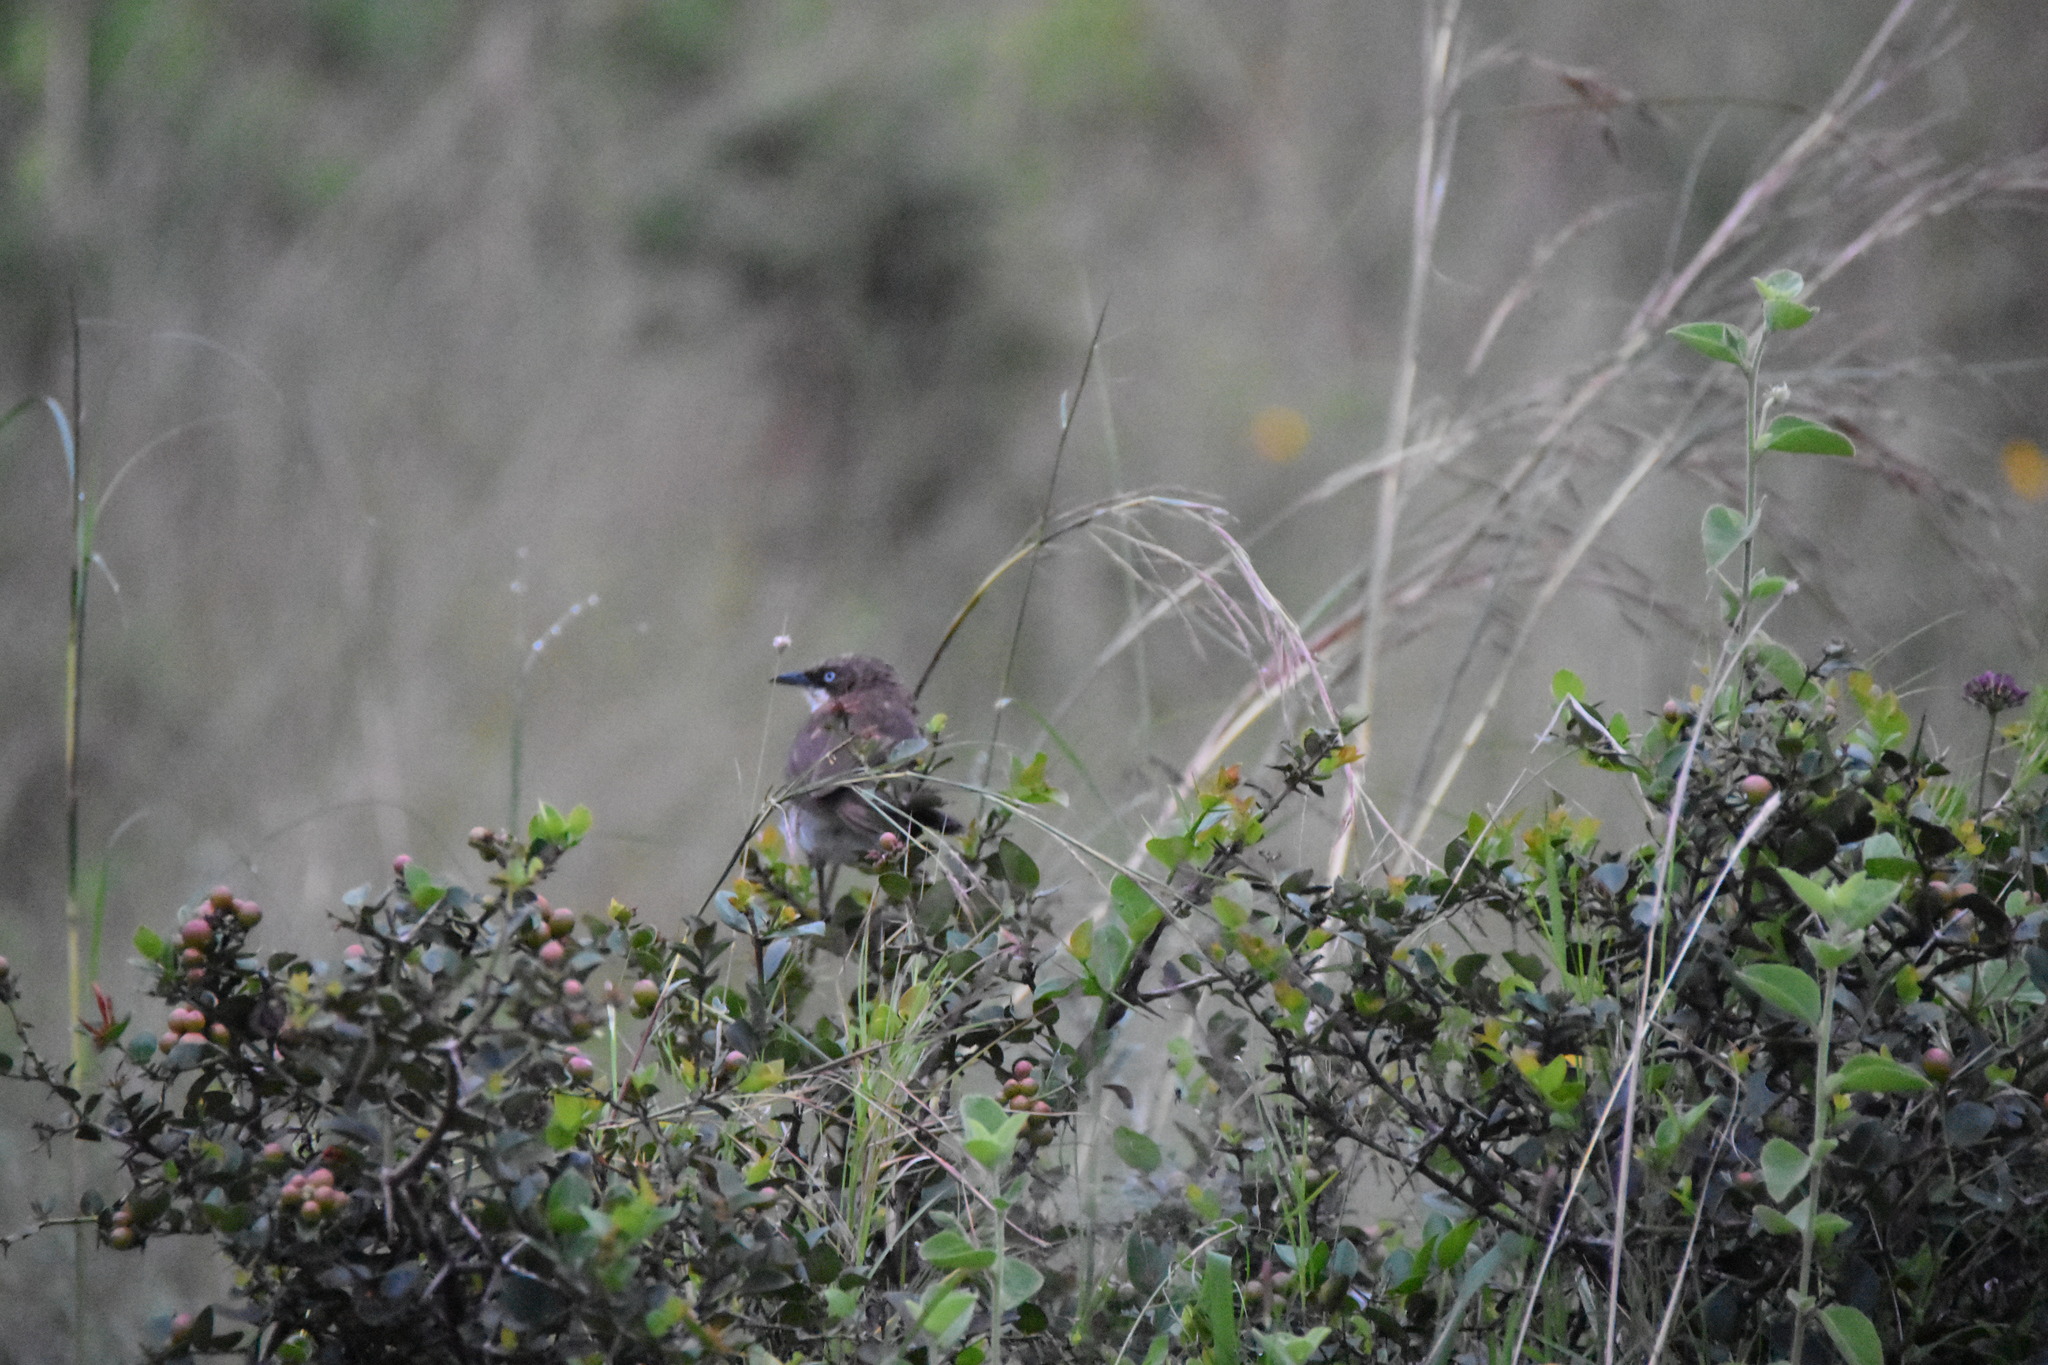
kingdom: Animalia
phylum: Chordata
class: Aves
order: Passeriformes
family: Leiothrichidae
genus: Turdoides
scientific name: Turdoides hypoleuca
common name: Northern pied-babbler
